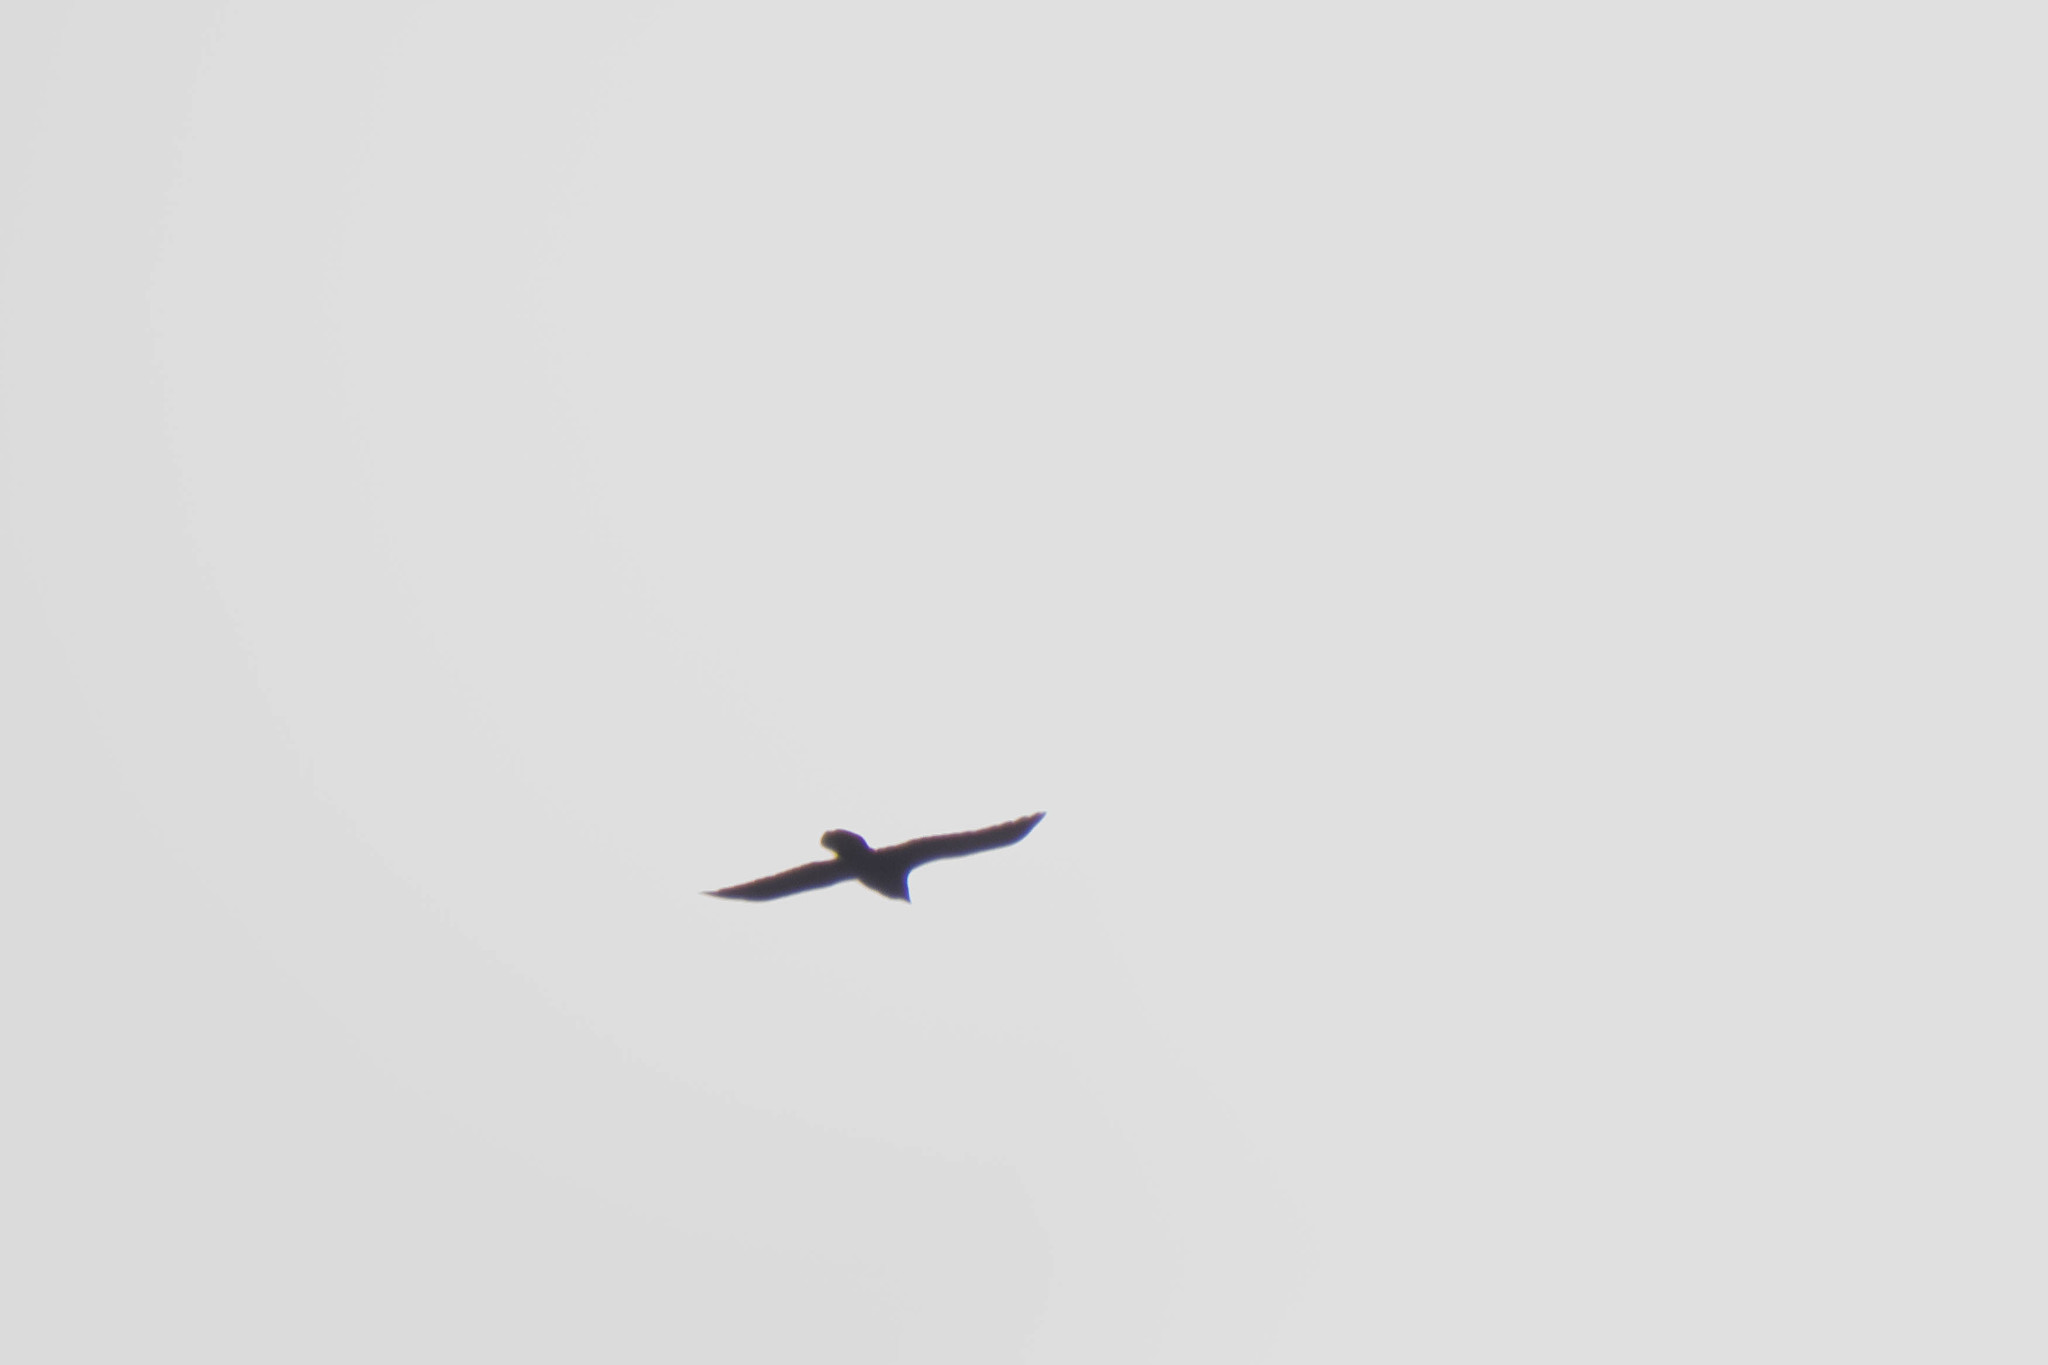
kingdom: Animalia
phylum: Chordata
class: Aves
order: Passeriformes
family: Corvidae
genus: Corvus
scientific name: Corvus brachyrhynchos
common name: American crow
